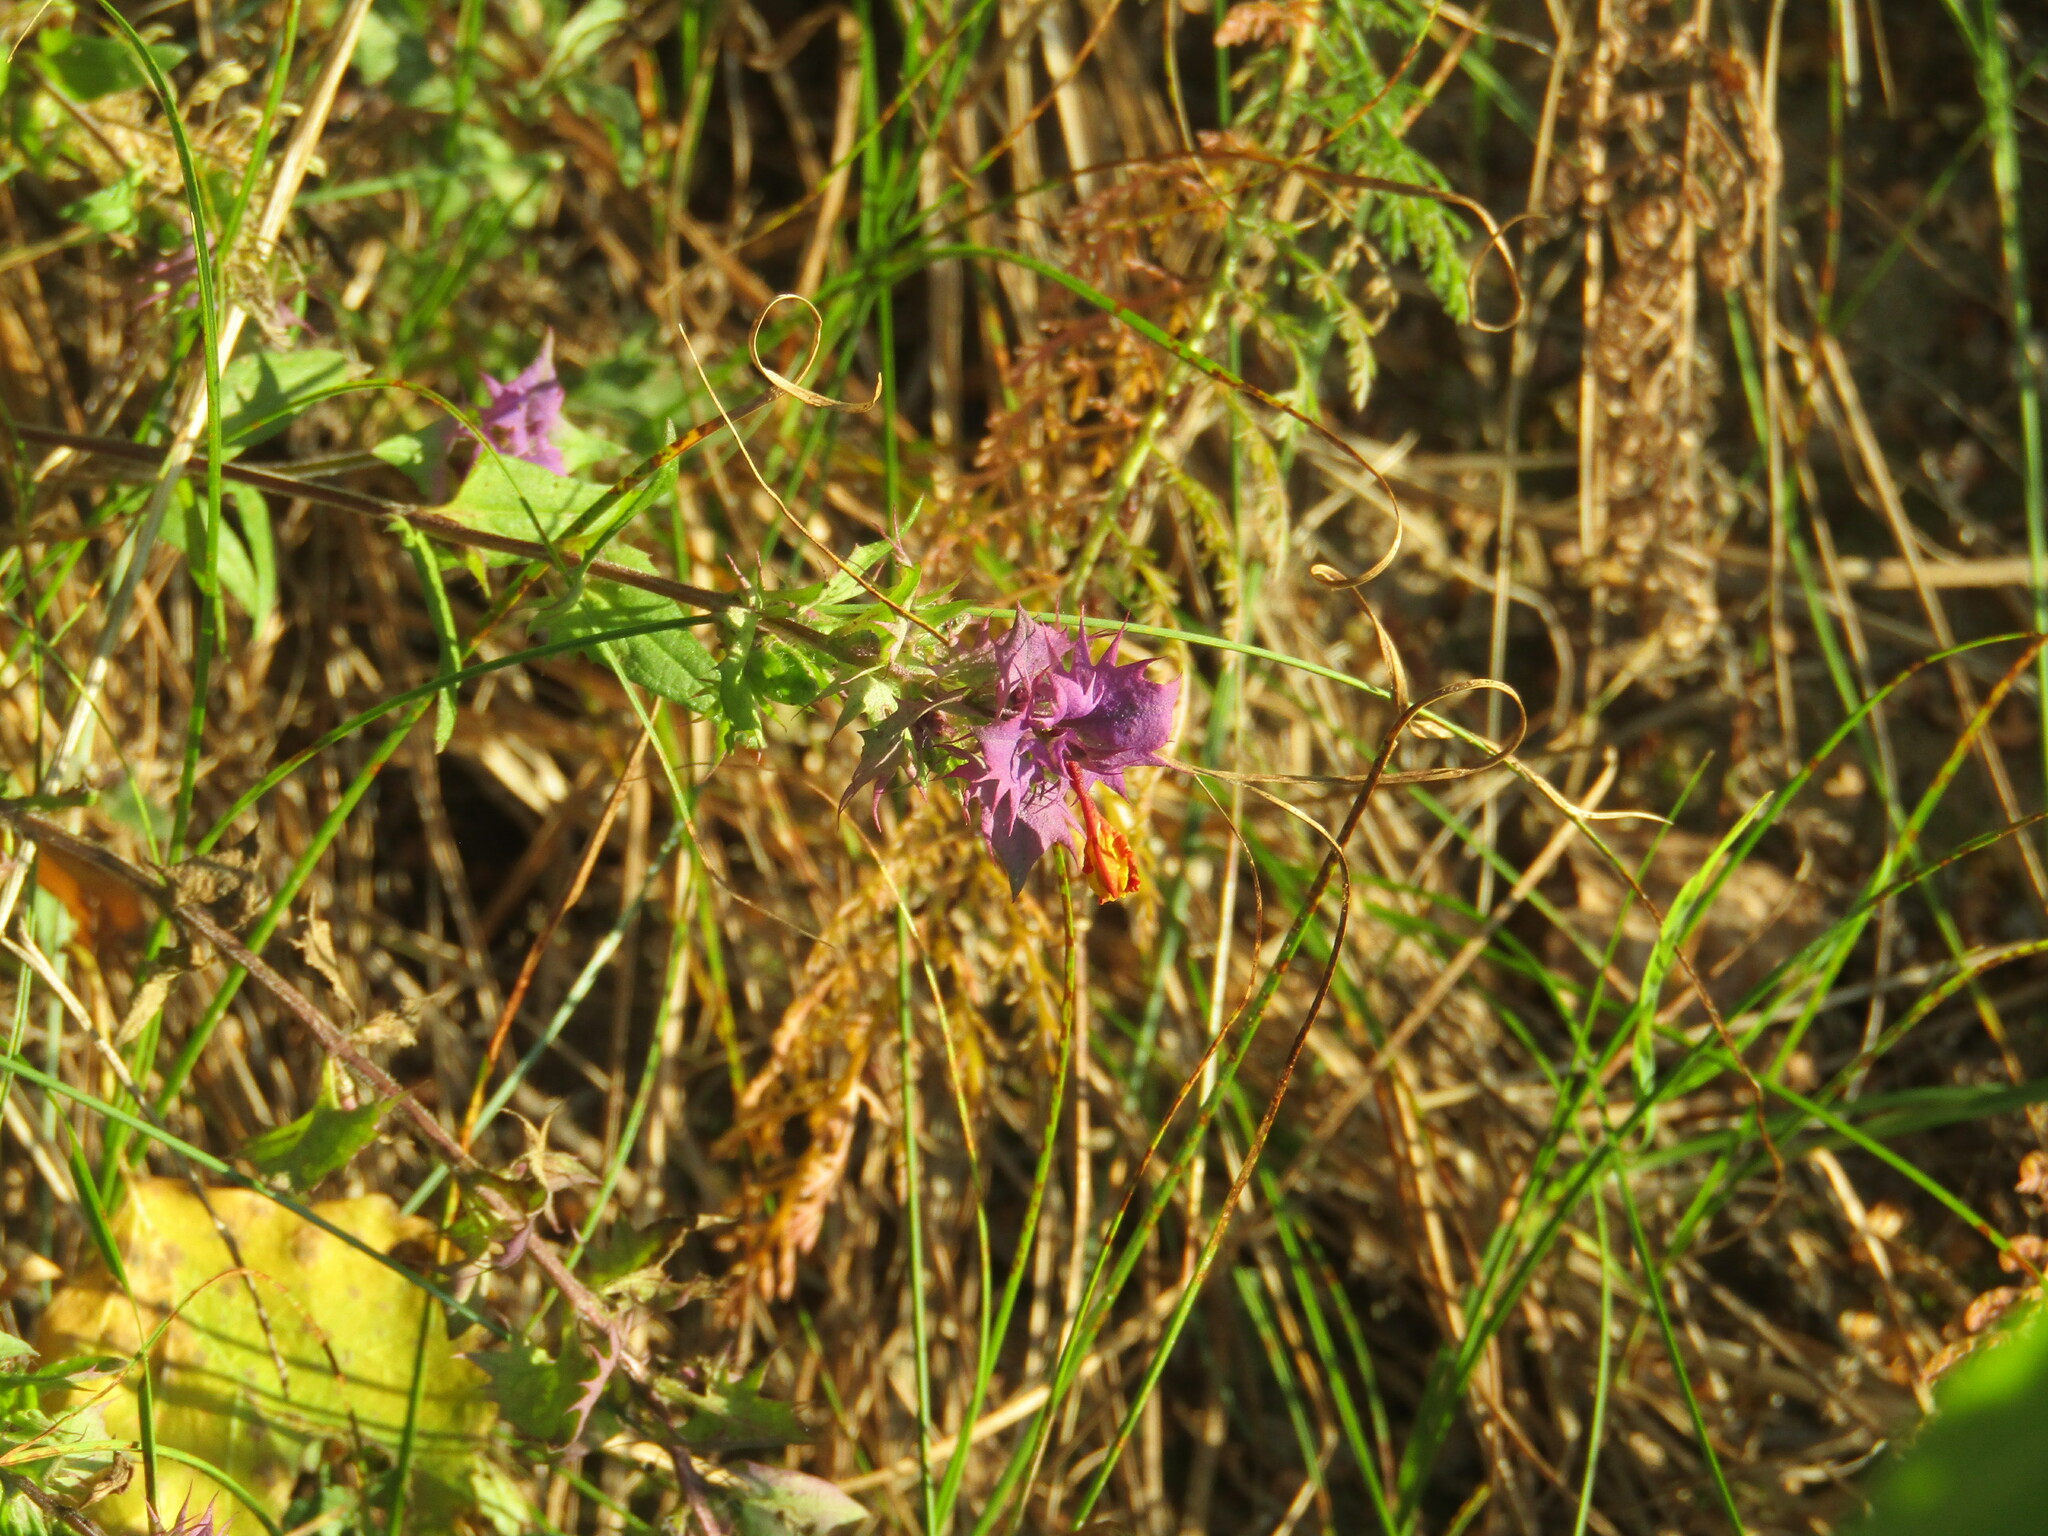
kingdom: Plantae
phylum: Tracheophyta
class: Magnoliopsida
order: Lamiales
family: Orobanchaceae
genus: Melampyrum
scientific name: Melampyrum nemorosum
